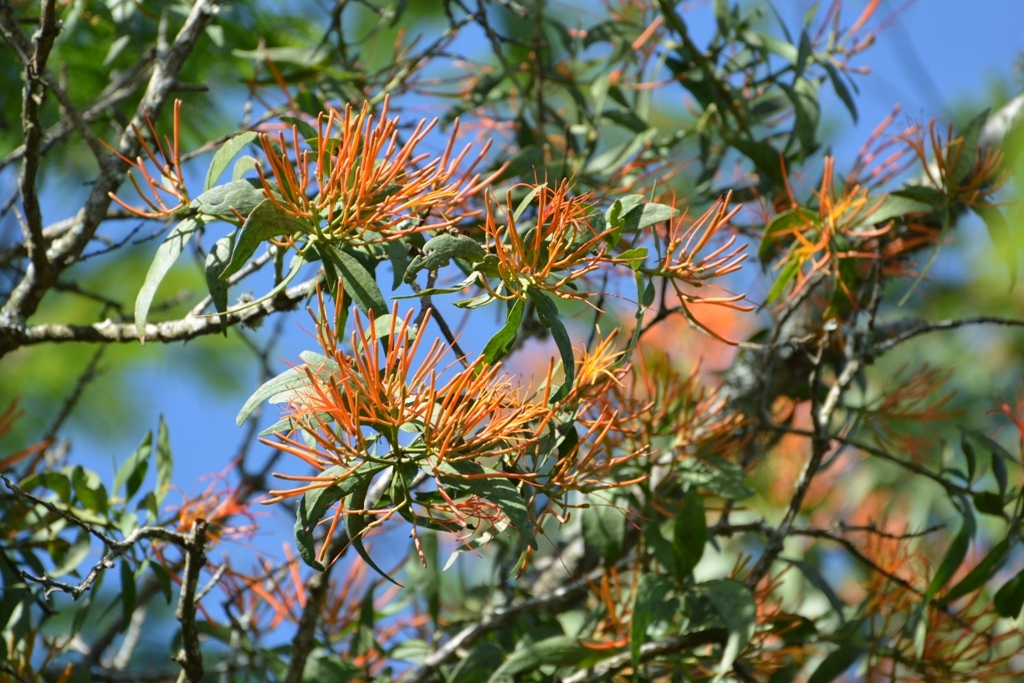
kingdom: Plantae
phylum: Tracheophyta
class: Magnoliopsida
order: Santalales
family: Loranthaceae
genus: Psittacanthus
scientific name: Psittacanthus schiedeanus
